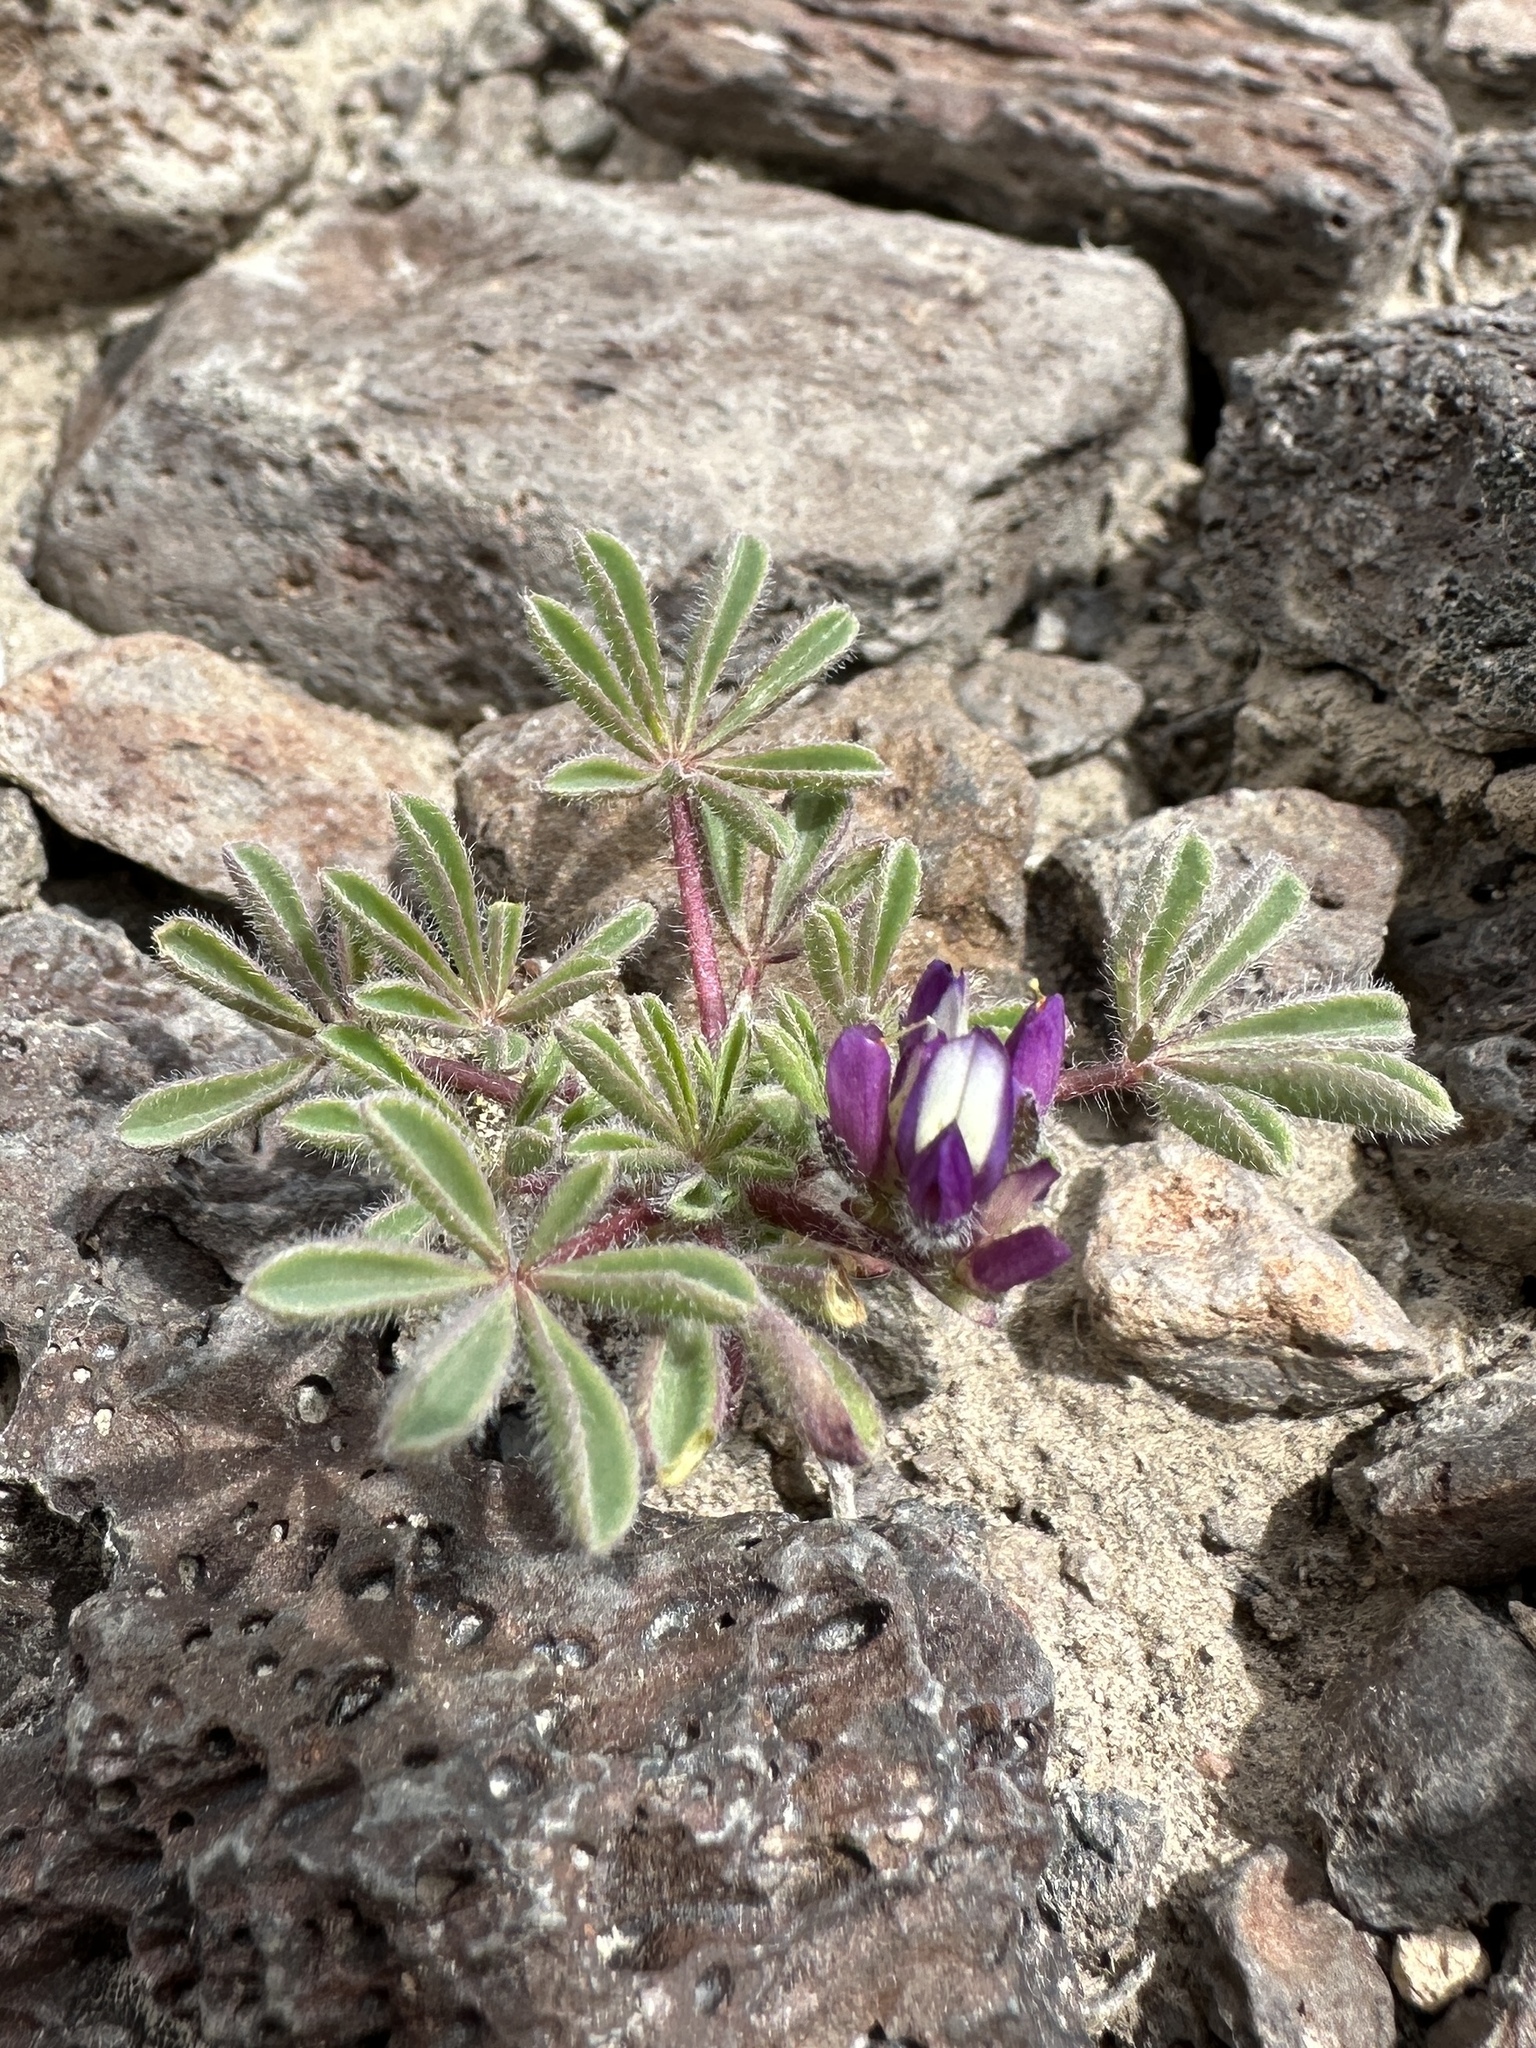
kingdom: Plantae
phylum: Tracheophyta
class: Magnoliopsida
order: Fabales
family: Fabaceae
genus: Lupinus
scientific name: Lupinus brevicaulis
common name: Sand lupine
